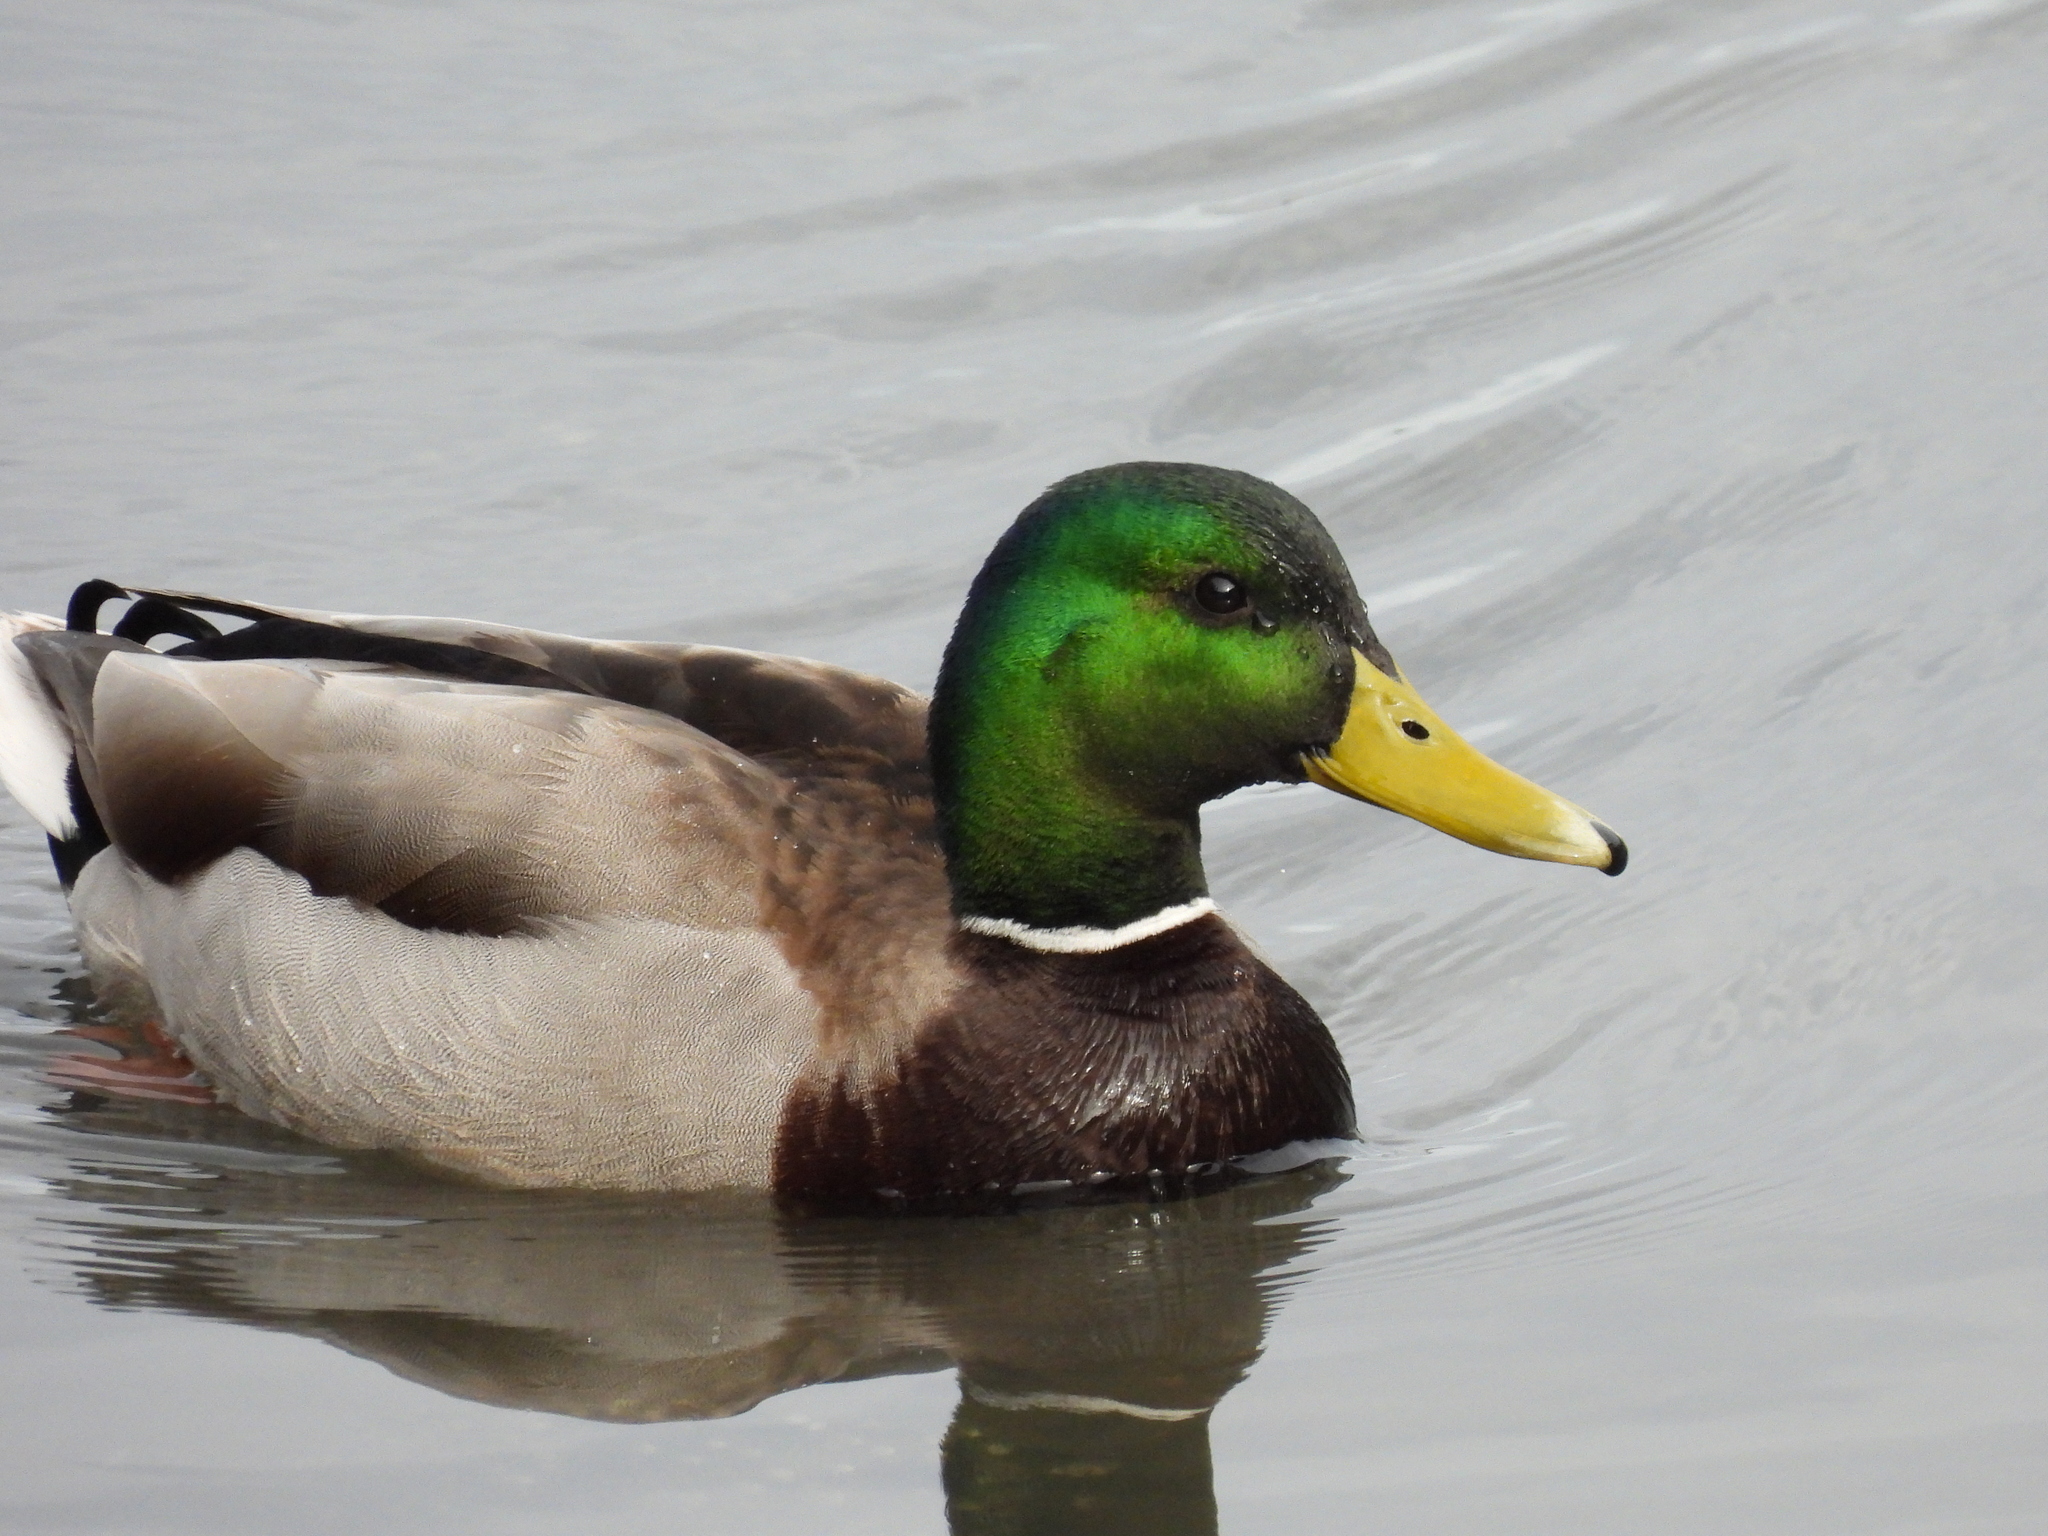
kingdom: Animalia
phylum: Chordata
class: Aves
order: Anseriformes
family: Anatidae
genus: Anas
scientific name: Anas platyrhynchos
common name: Mallard
